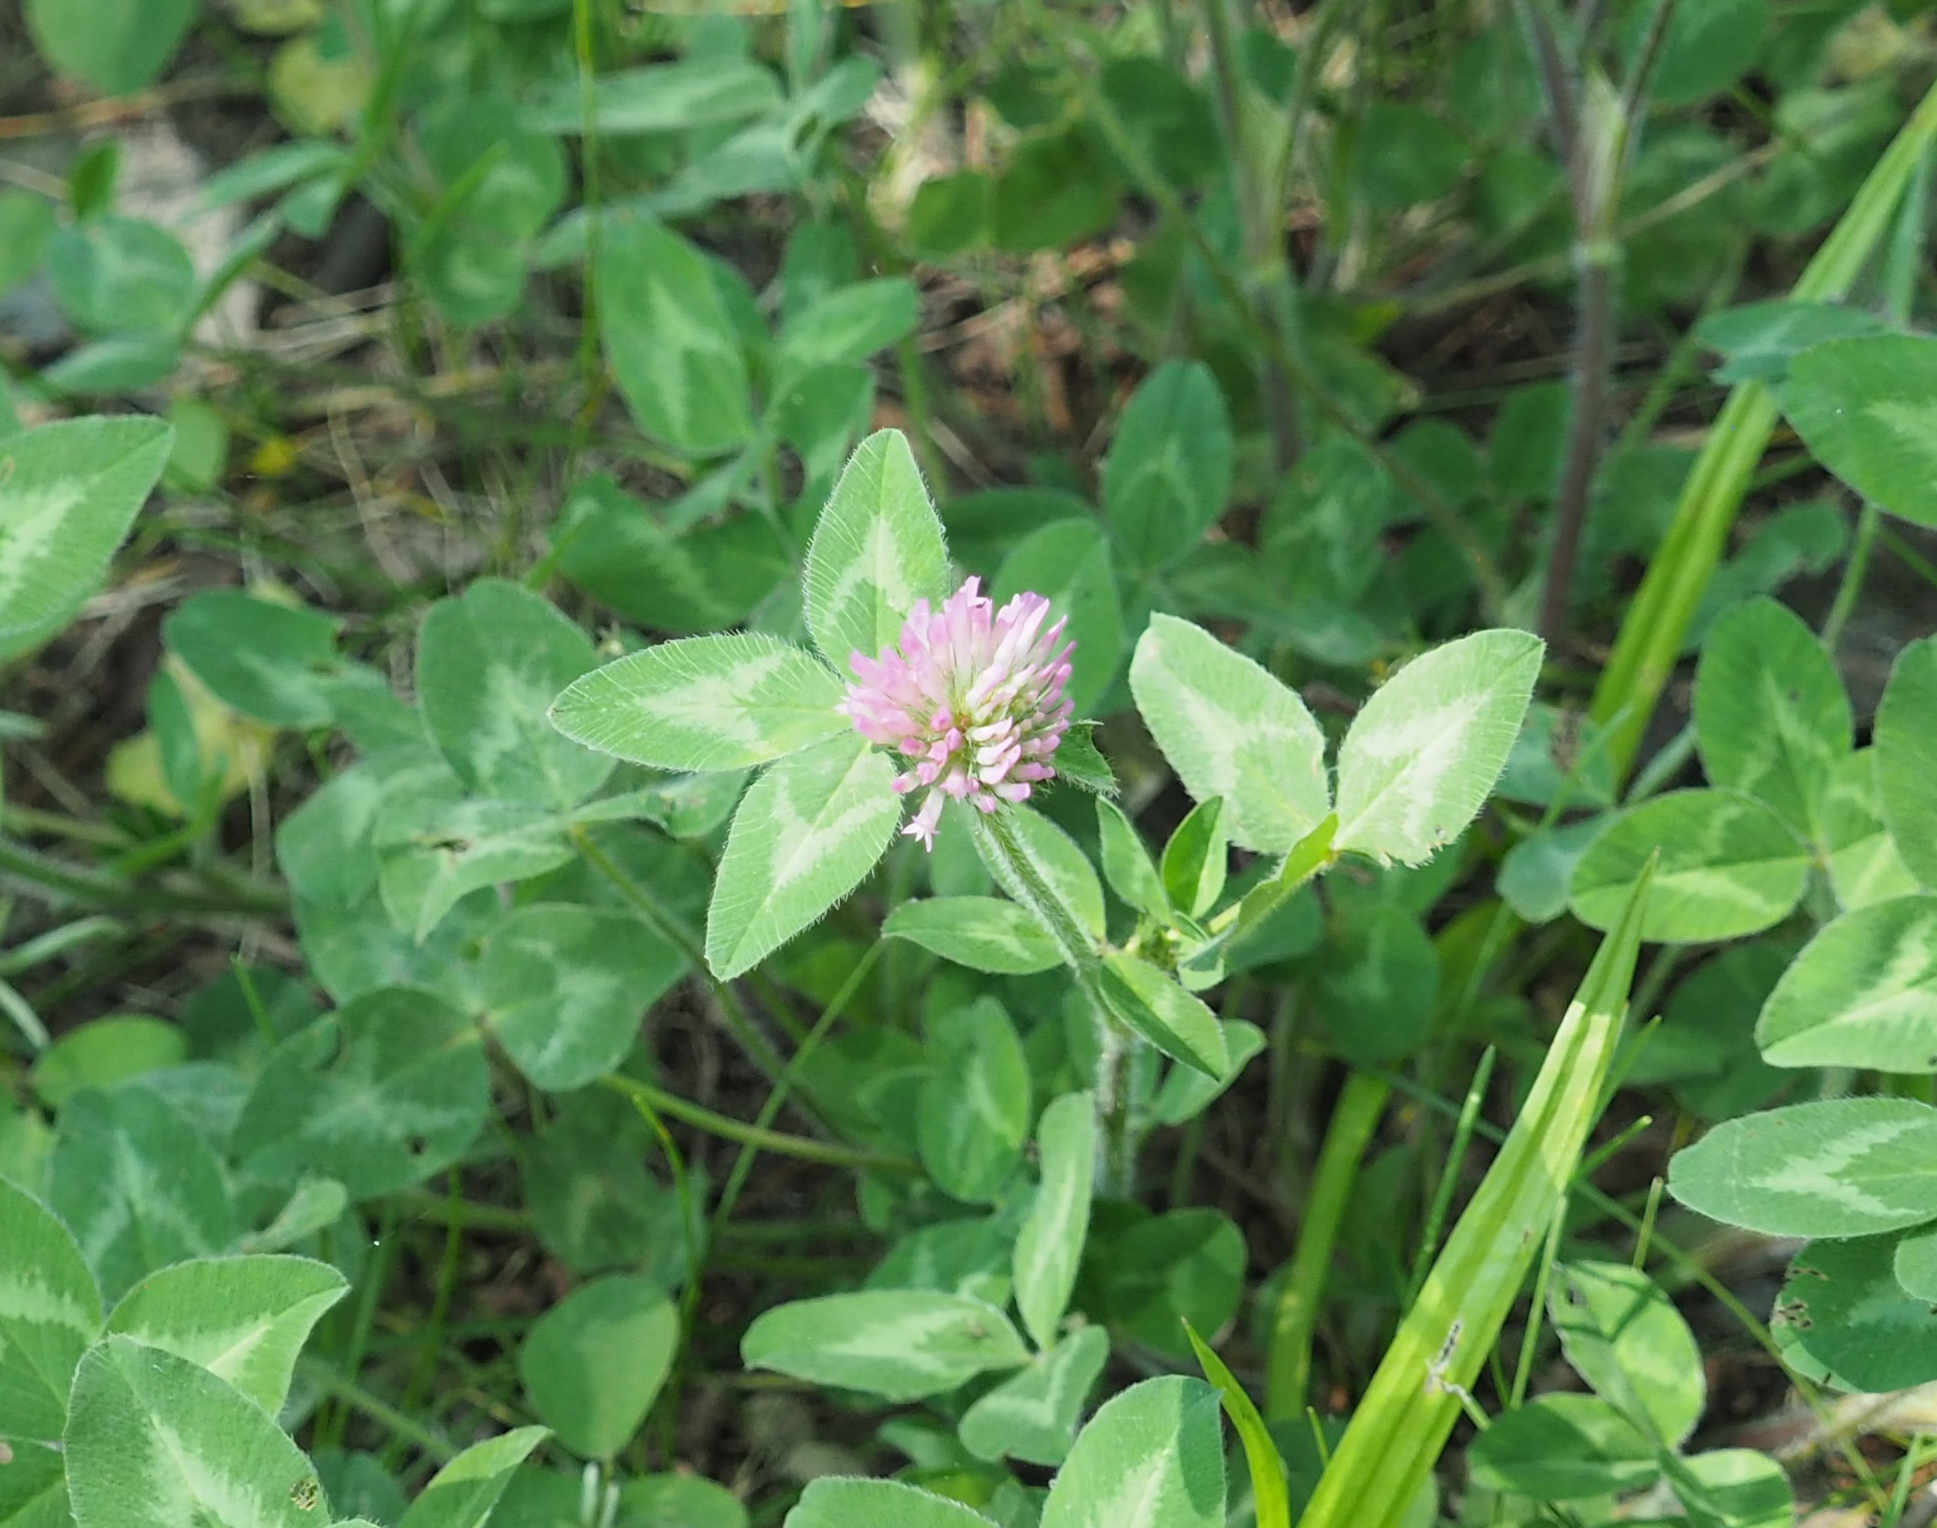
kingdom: Plantae
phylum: Tracheophyta
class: Magnoliopsida
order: Fabales
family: Fabaceae
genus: Trifolium
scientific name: Trifolium pratense
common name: Red clover
